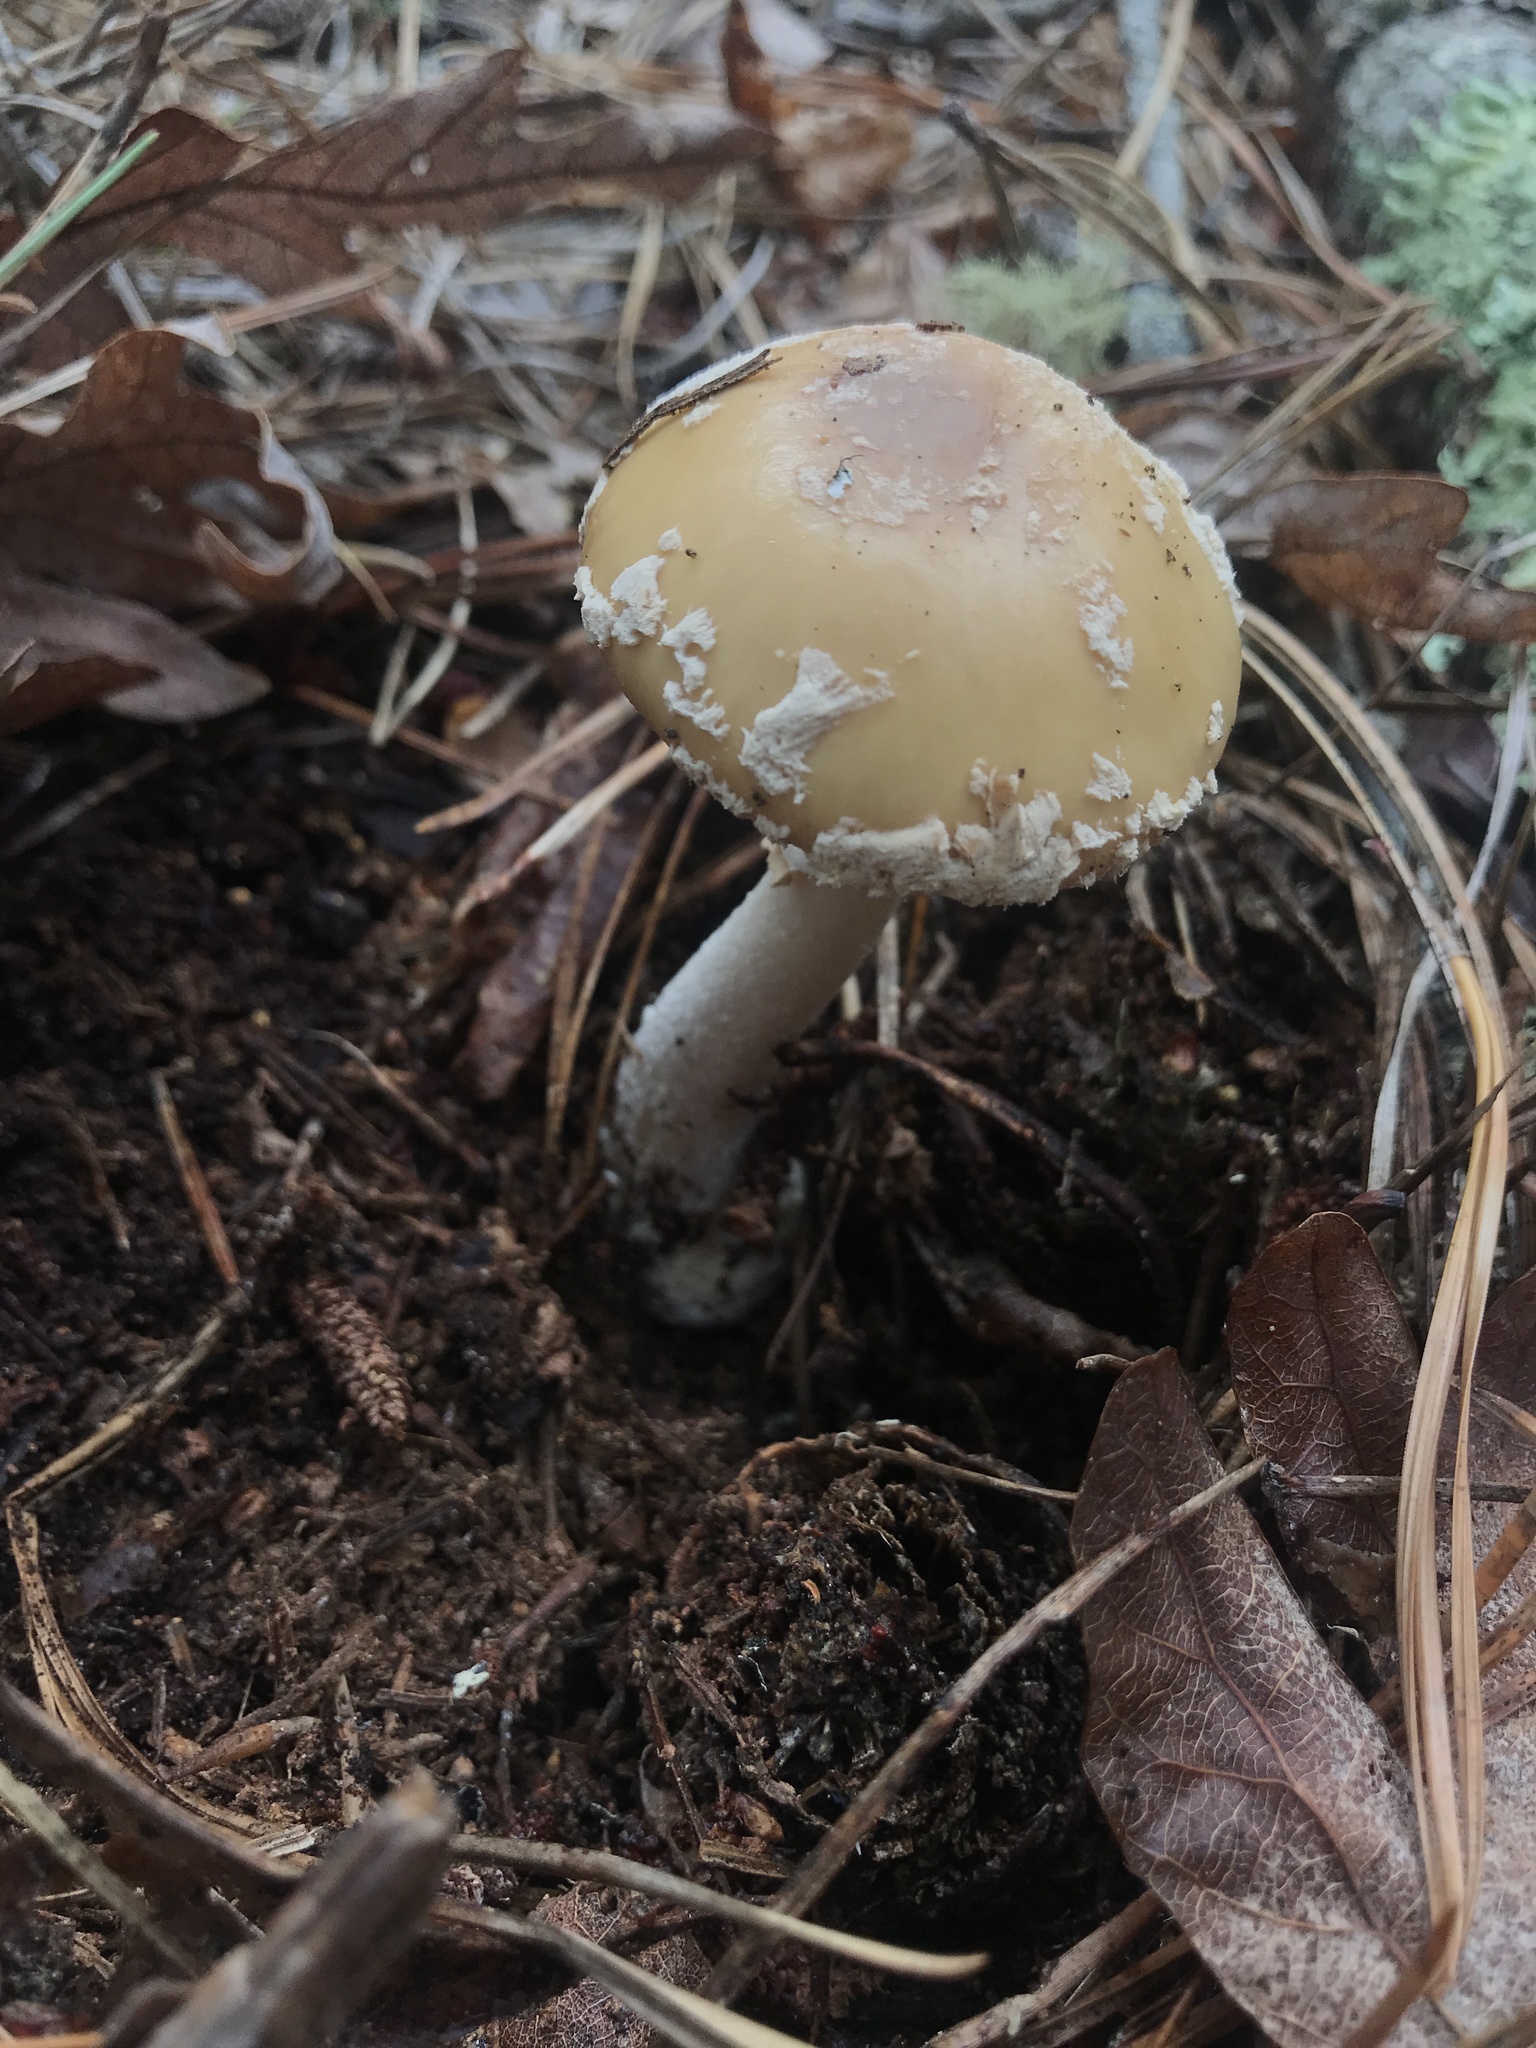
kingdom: Fungi
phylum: Basidiomycota
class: Agaricomycetes
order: Agaricales
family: Amanitaceae
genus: Amanita
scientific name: Amanita crenulata
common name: Poison champagne amanita
